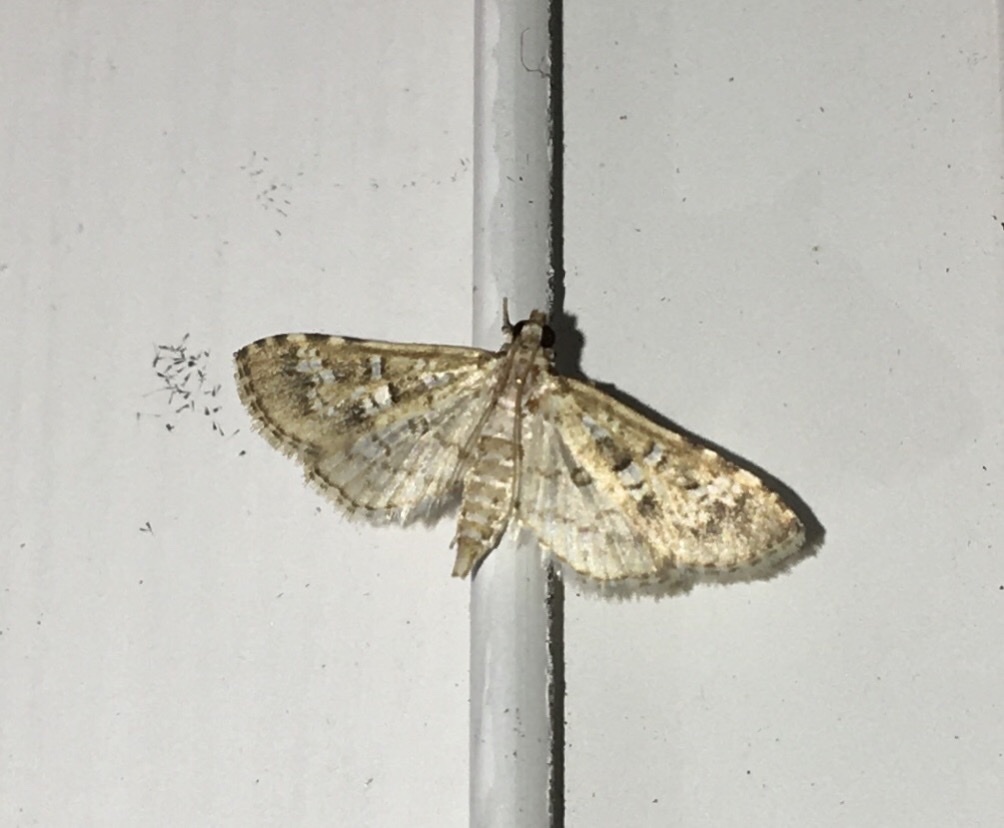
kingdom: Animalia
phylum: Arthropoda
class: Insecta
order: Lepidoptera
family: Crambidae
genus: Samea
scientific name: Samea multiplicalis
